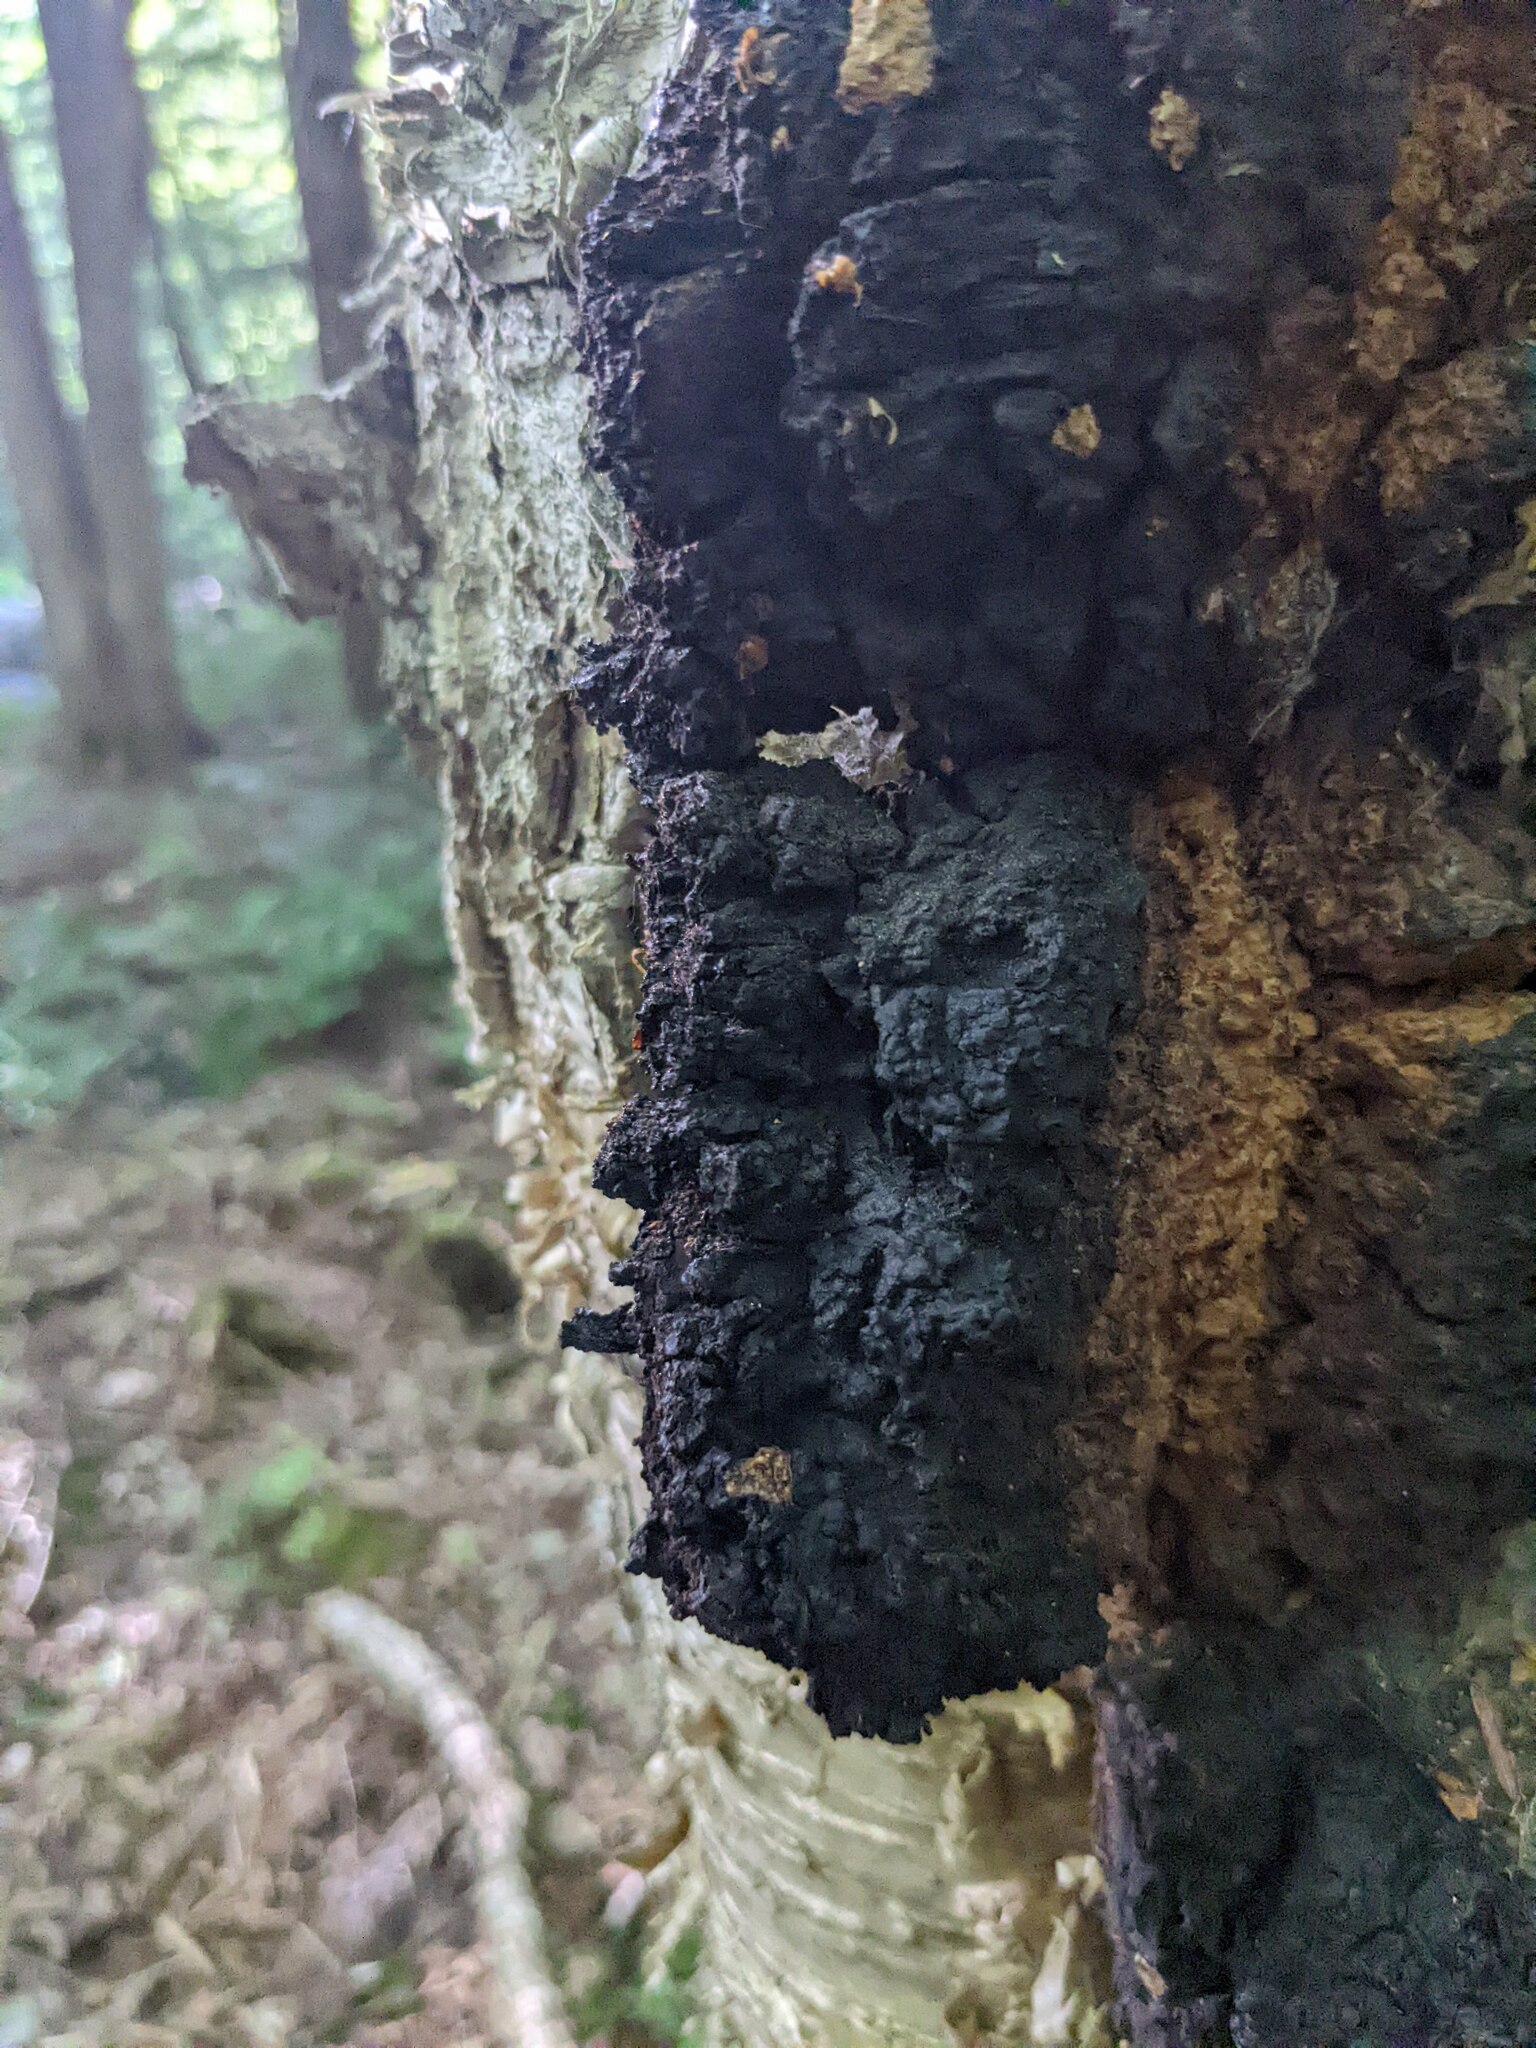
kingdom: Fungi
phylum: Basidiomycota
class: Agaricomycetes
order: Hymenochaetales
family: Hymenochaetaceae
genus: Inonotus
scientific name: Inonotus obliquus
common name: Chaga
